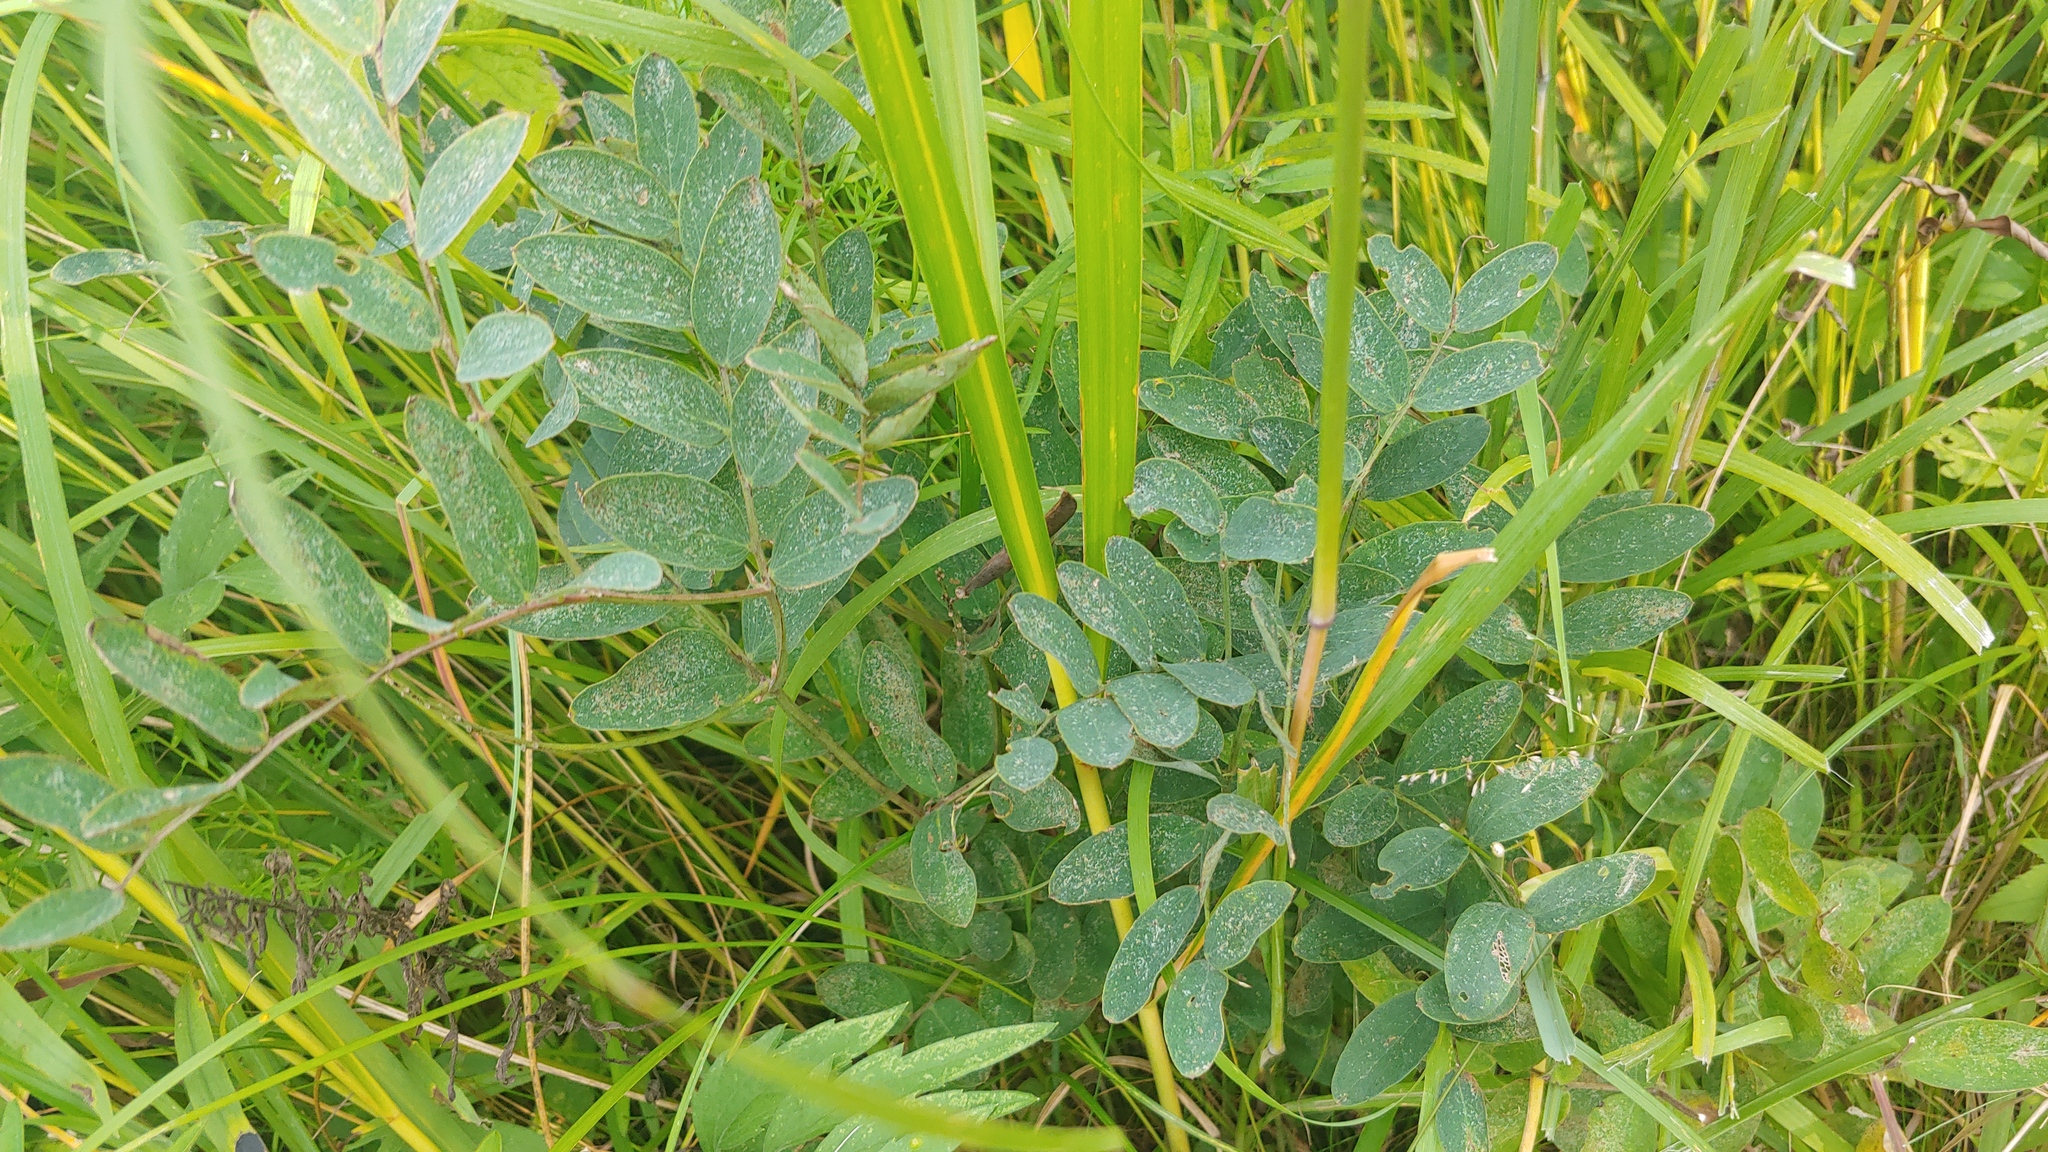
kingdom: Plantae
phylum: Tracheophyta
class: Magnoliopsida
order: Fabales
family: Fabaceae
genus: Lathyrus
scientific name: Lathyrus venosus
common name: Forest-pea
